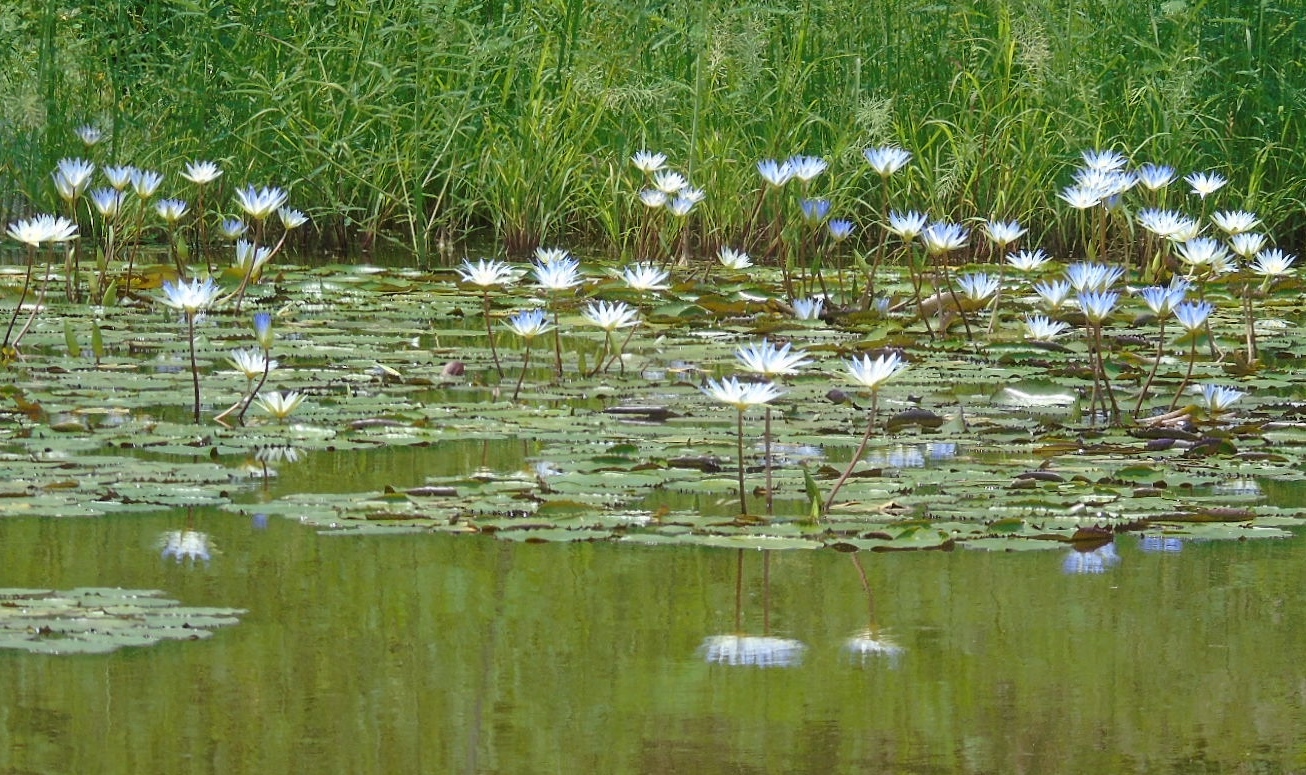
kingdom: Plantae
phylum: Tracheophyta
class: Magnoliopsida
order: Nymphaeales
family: Nymphaeaceae
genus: Nymphaea
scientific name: Nymphaea elegans
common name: Blue water-lily
